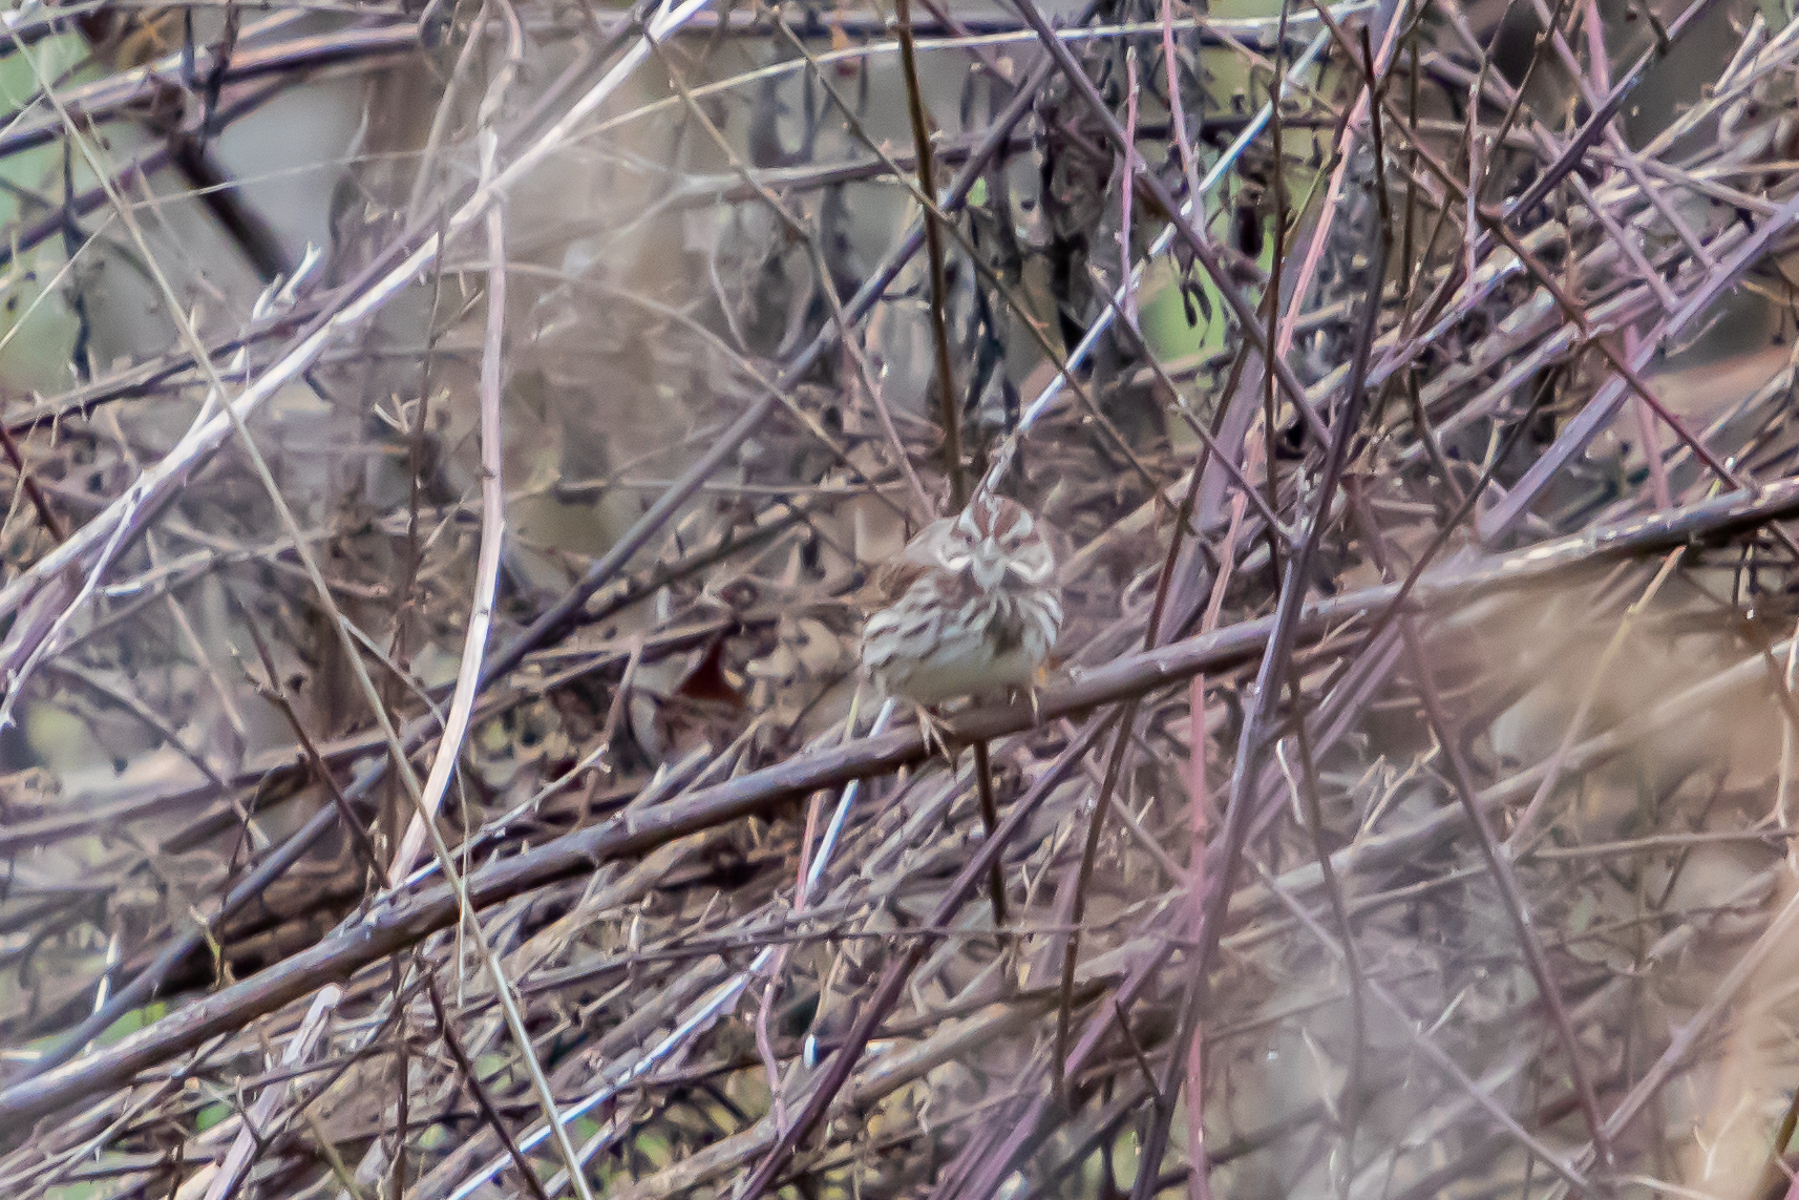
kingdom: Animalia
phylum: Chordata
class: Aves
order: Passeriformes
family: Passerellidae
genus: Melospiza
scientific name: Melospiza melodia
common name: Song sparrow
